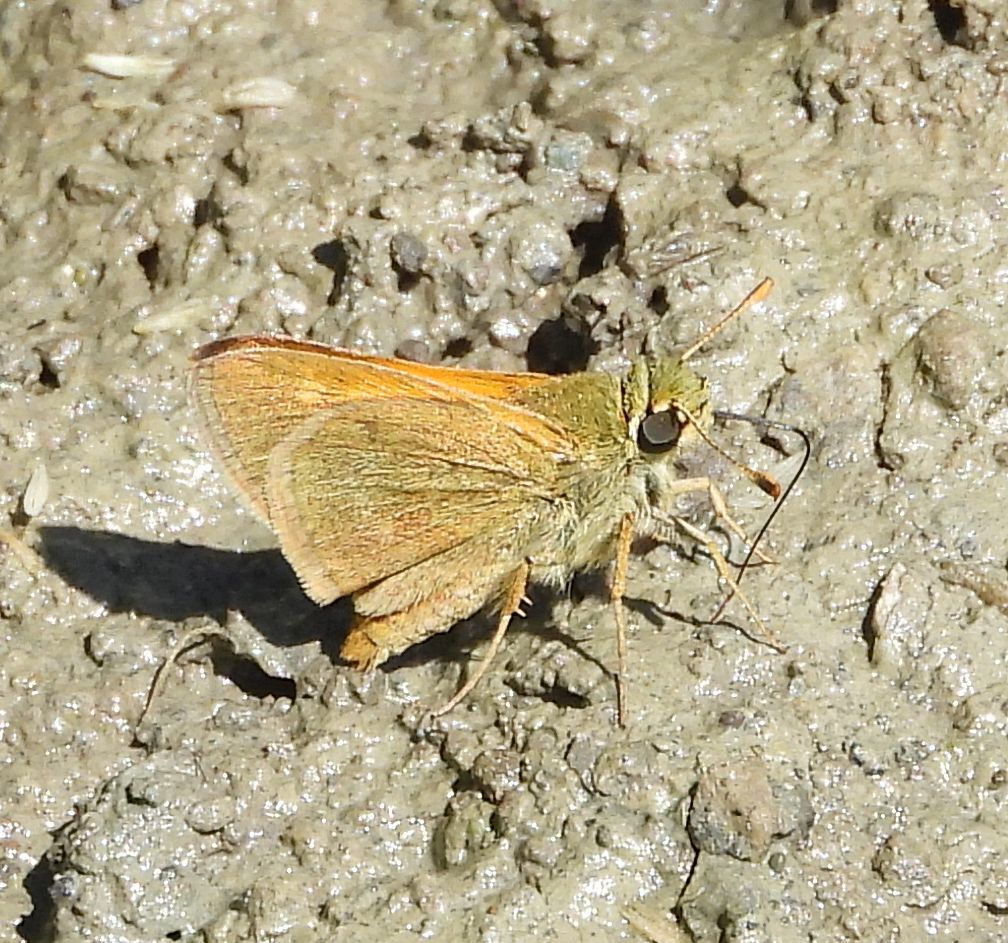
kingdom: Animalia
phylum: Arthropoda
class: Insecta
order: Lepidoptera
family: Hesperiidae
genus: Polites
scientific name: Polites themistocles
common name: Tawny-edged skipper
